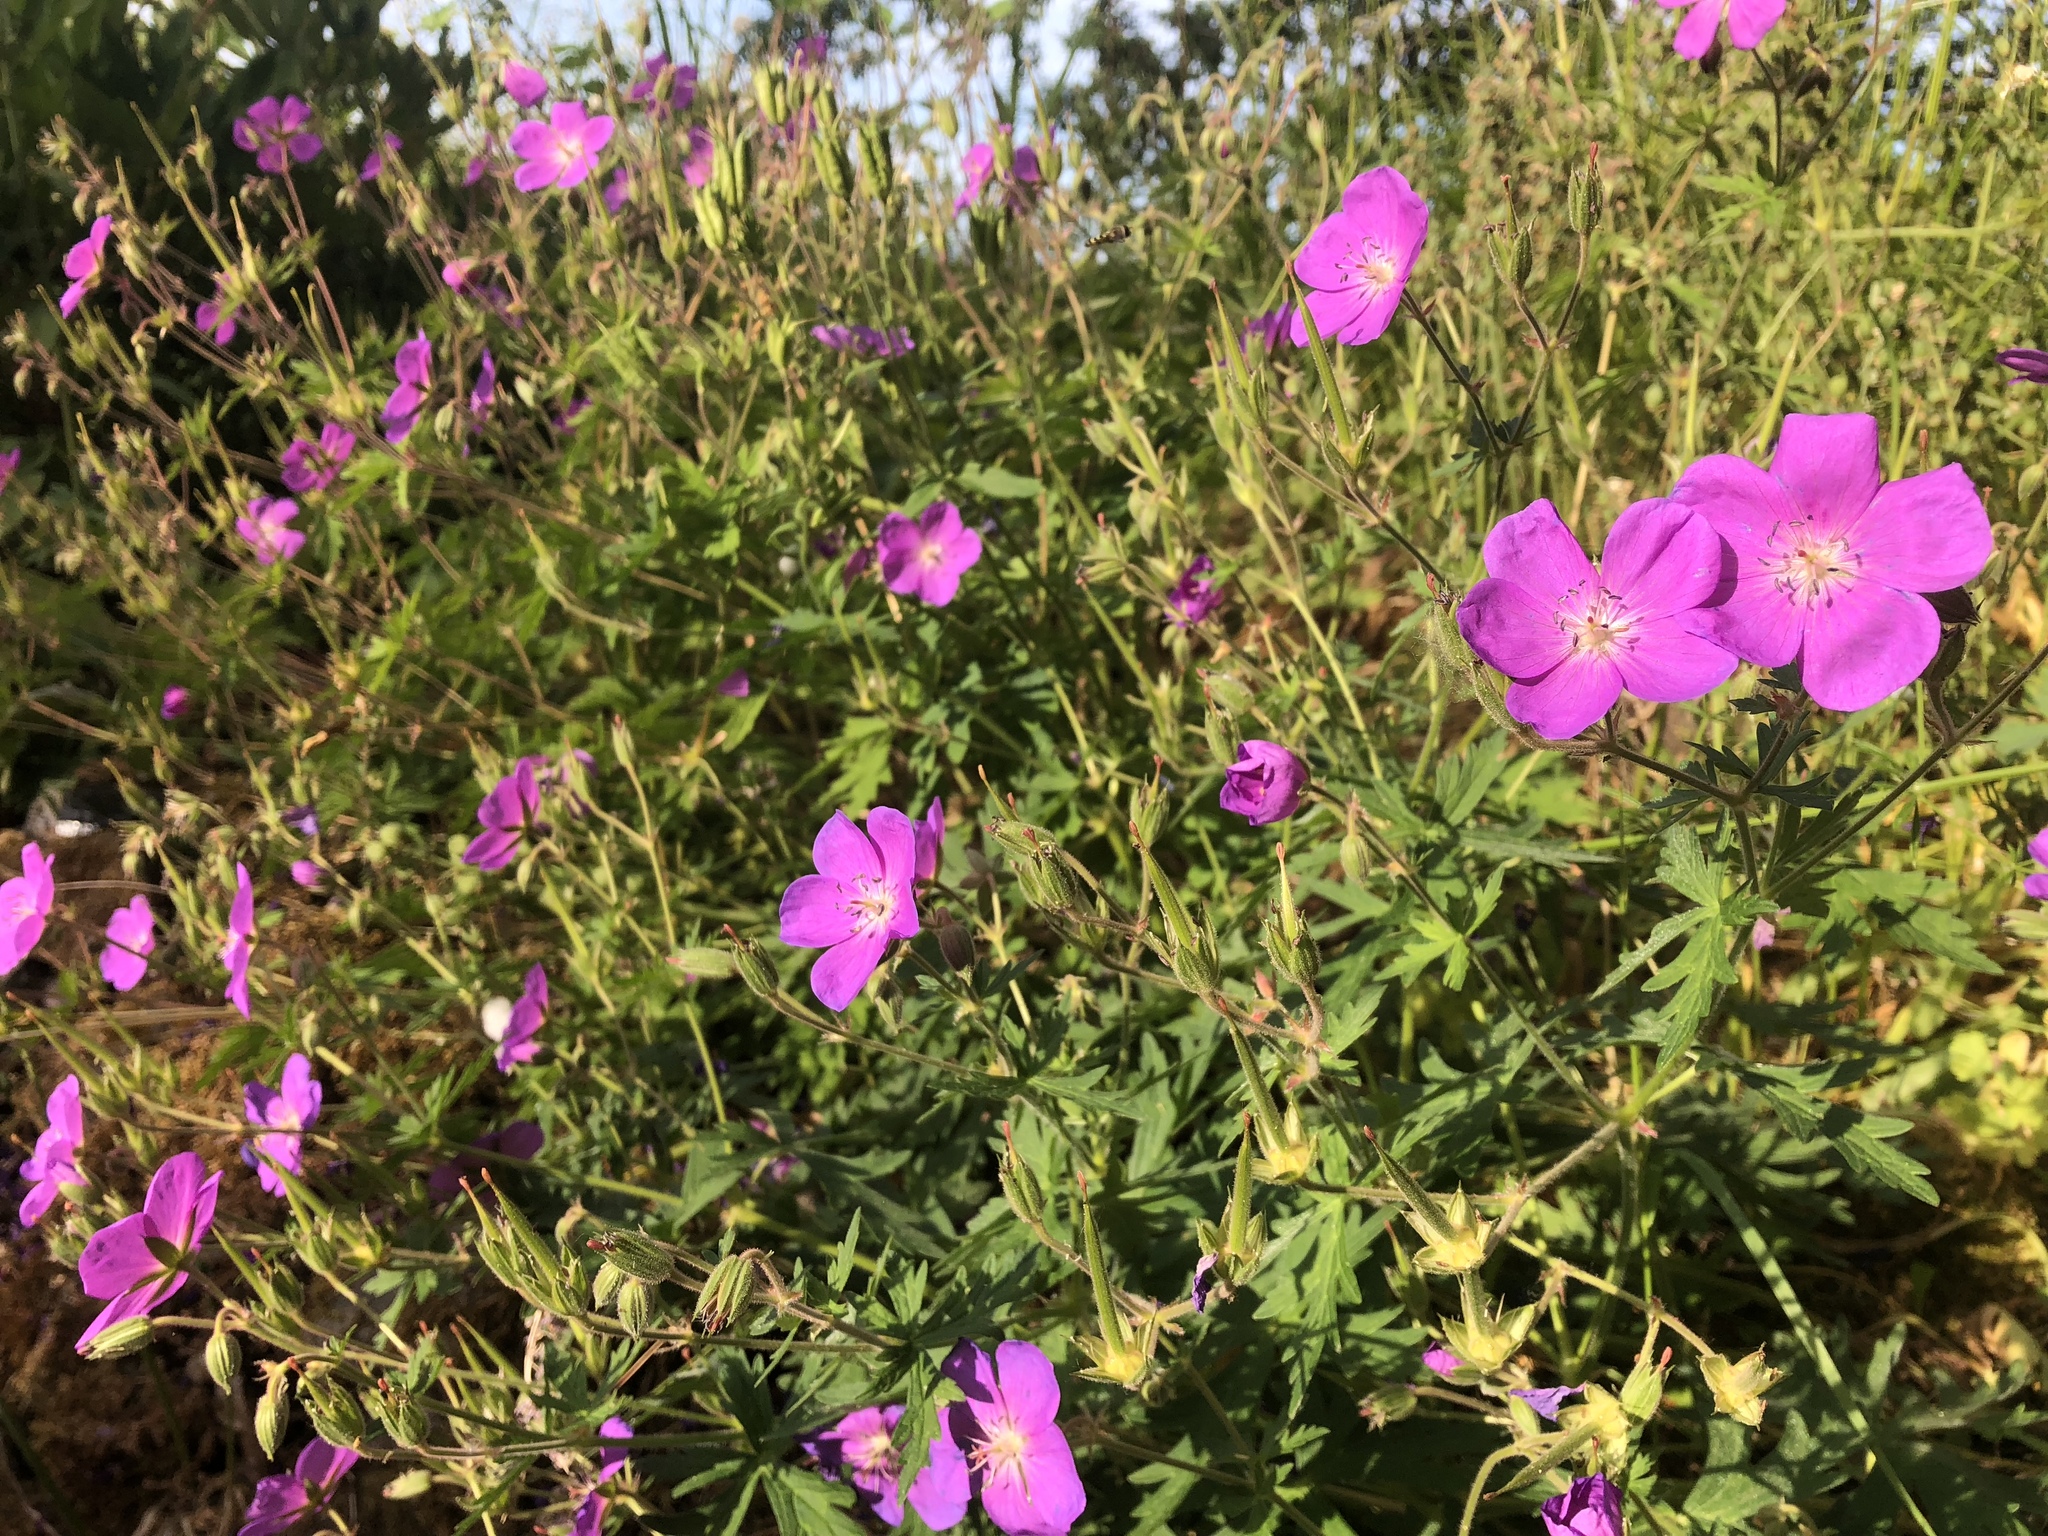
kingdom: Plantae
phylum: Tracheophyta
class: Magnoliopsida
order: Geraniales
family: Geraniaceae
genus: Geranium
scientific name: Geranium oreganum
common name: Oregon crane's-bill
